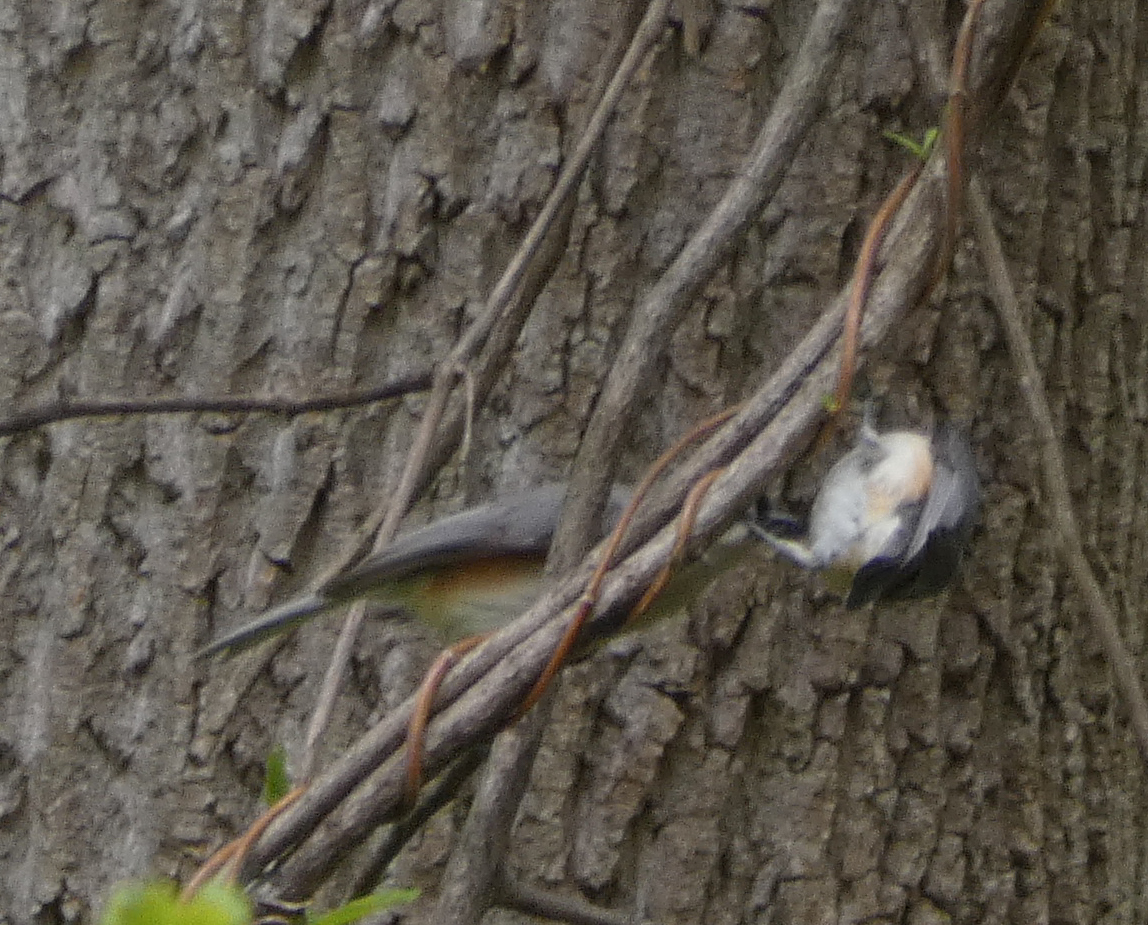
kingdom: Animalia
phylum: Chordata
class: Aves
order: Passeriformes
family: Paridae
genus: Baeolophus
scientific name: Baeolophus bicolor
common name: Tufted titmouse
